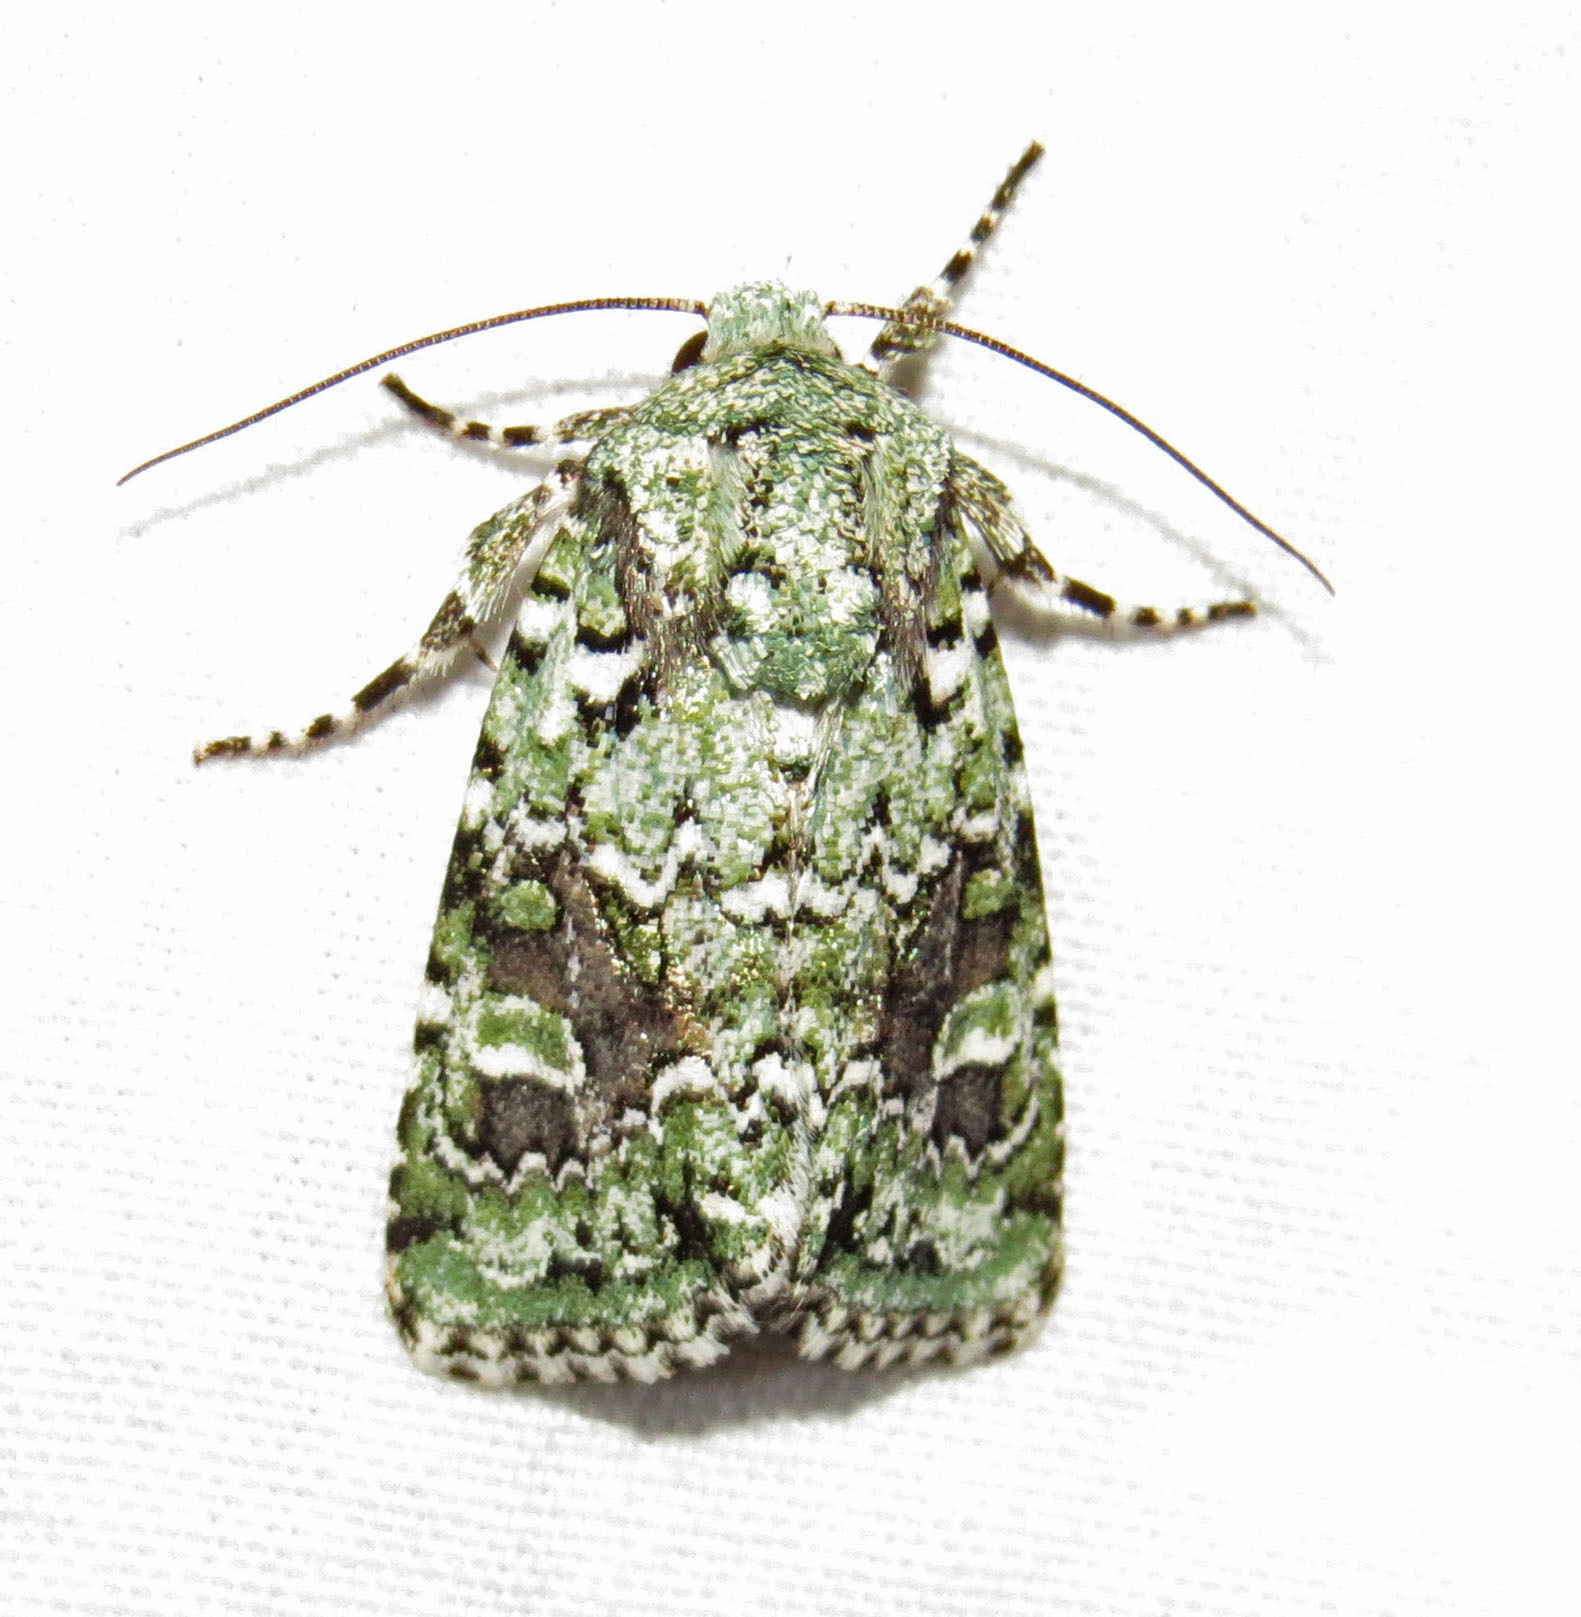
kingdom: Animalia
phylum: Arthropoda
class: Insecta
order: Lepidoptera
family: Noctuidae
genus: Lacinipolia
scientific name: Lacinipolia laudabilis
